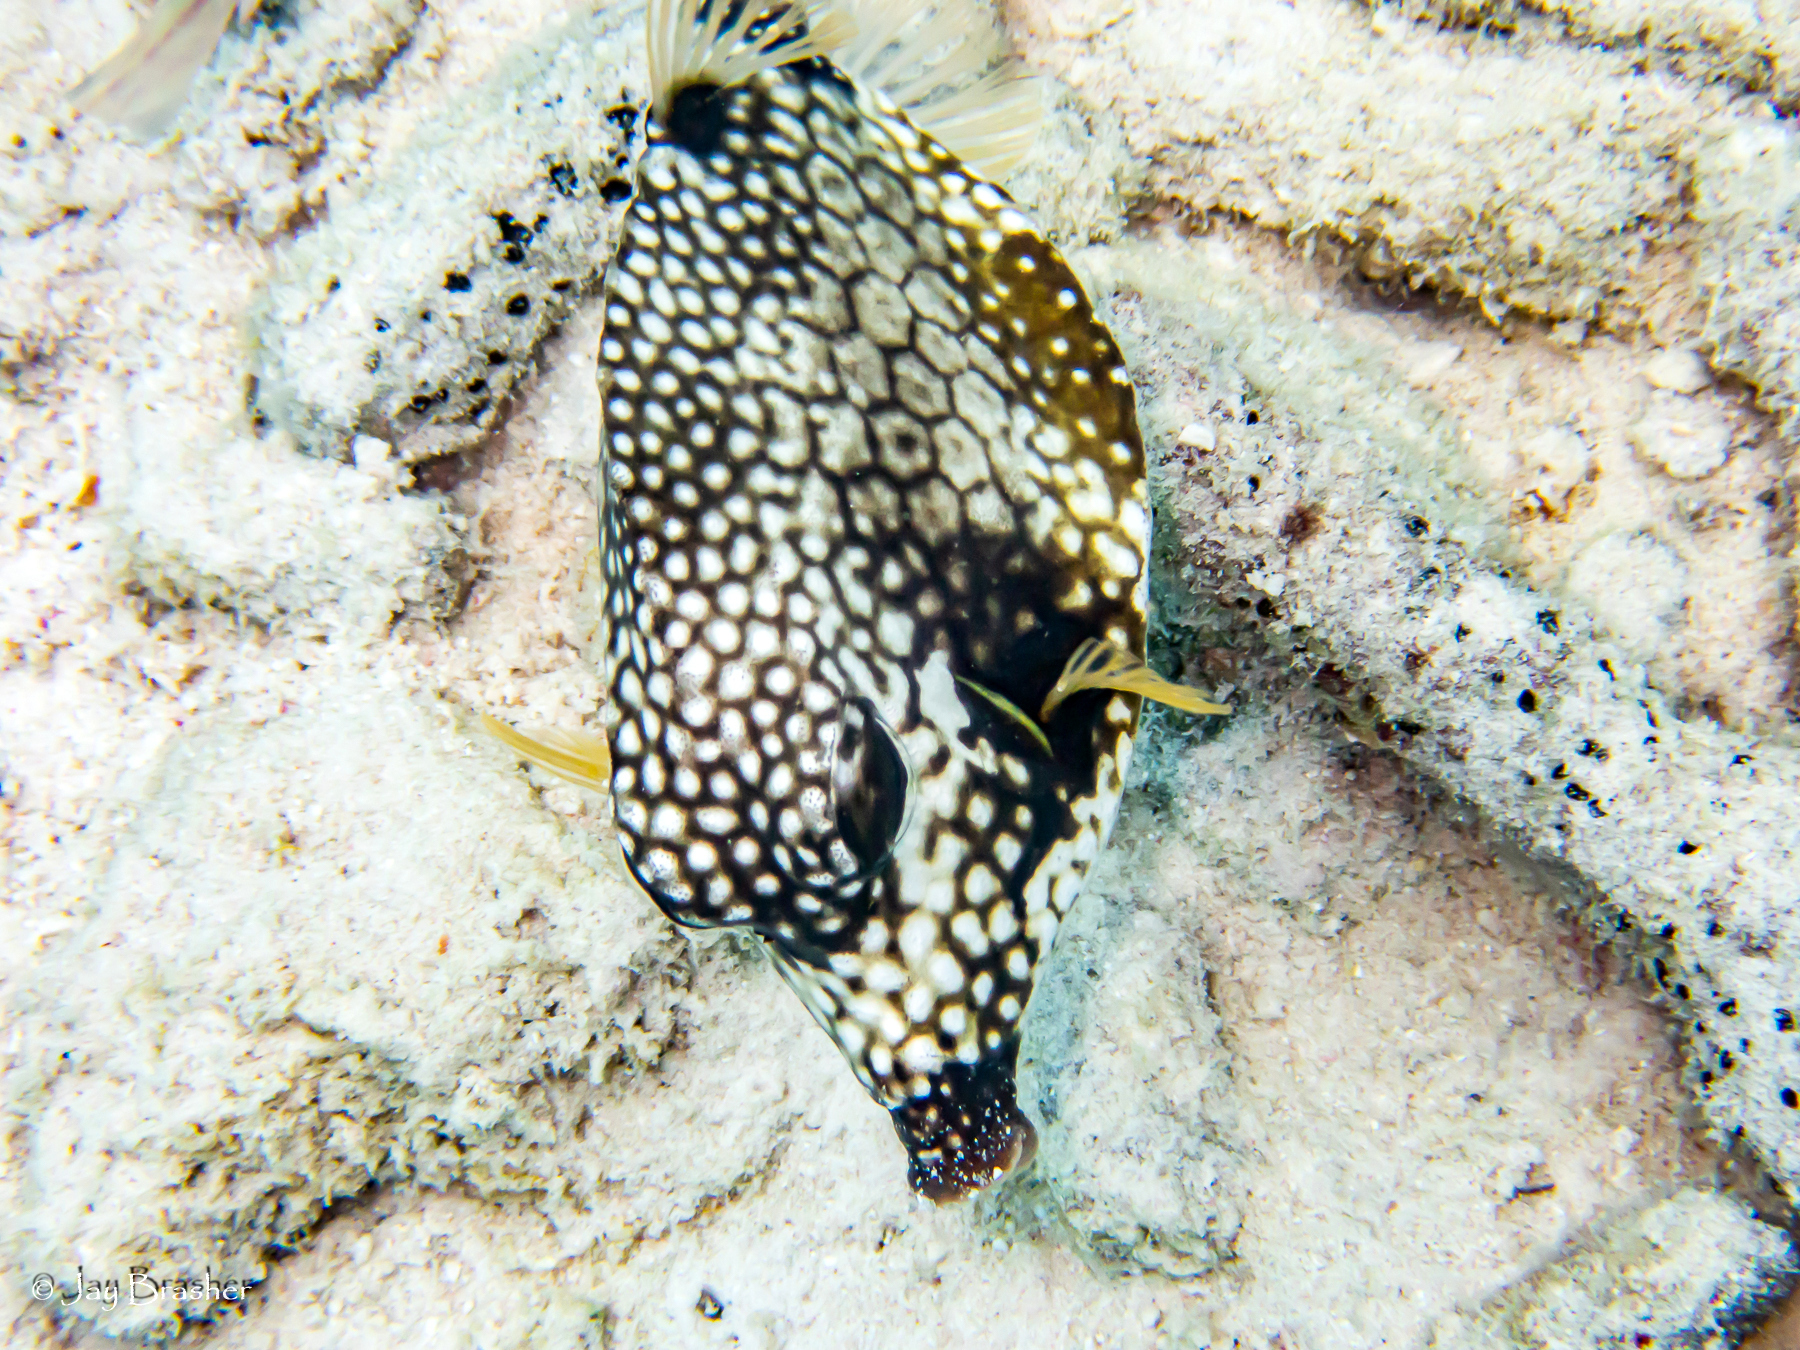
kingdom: Animalia
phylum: Porifera
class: Demospongiae
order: Clionaida
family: Clionaidae
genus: Cliona
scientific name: Cliona aprica
